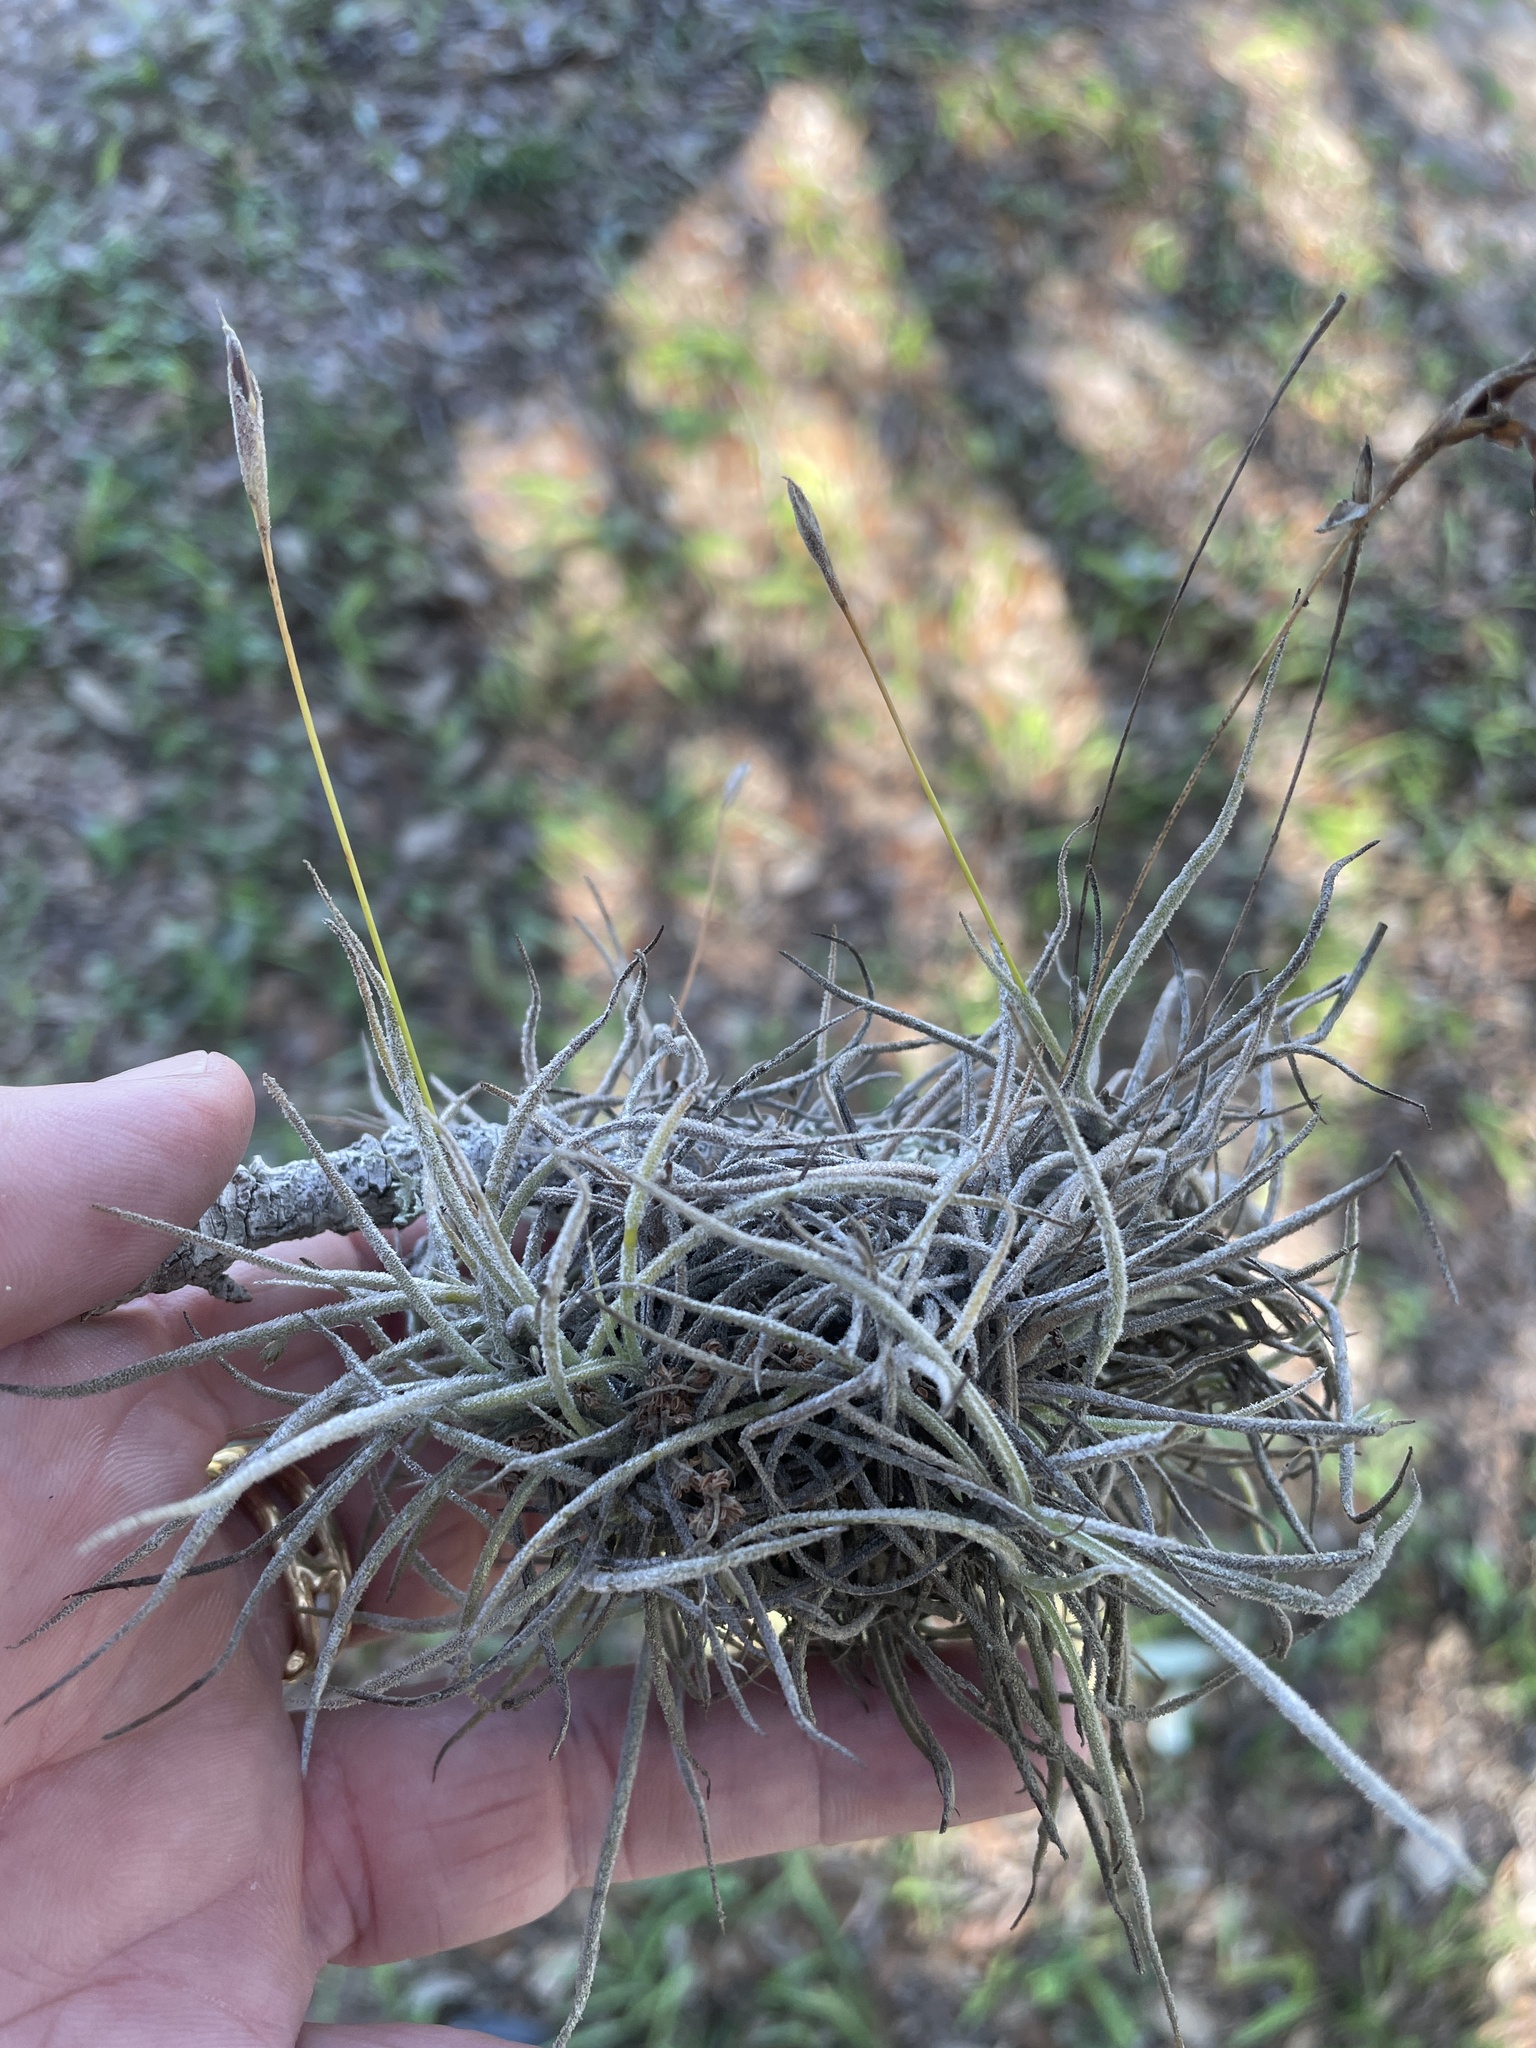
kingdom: Plantae
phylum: Tracheophyta
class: Liliopsida
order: Poales
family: Bromeliaceae
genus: Tillandsia
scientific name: Tillandsia recurvata
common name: Small ballmoss
